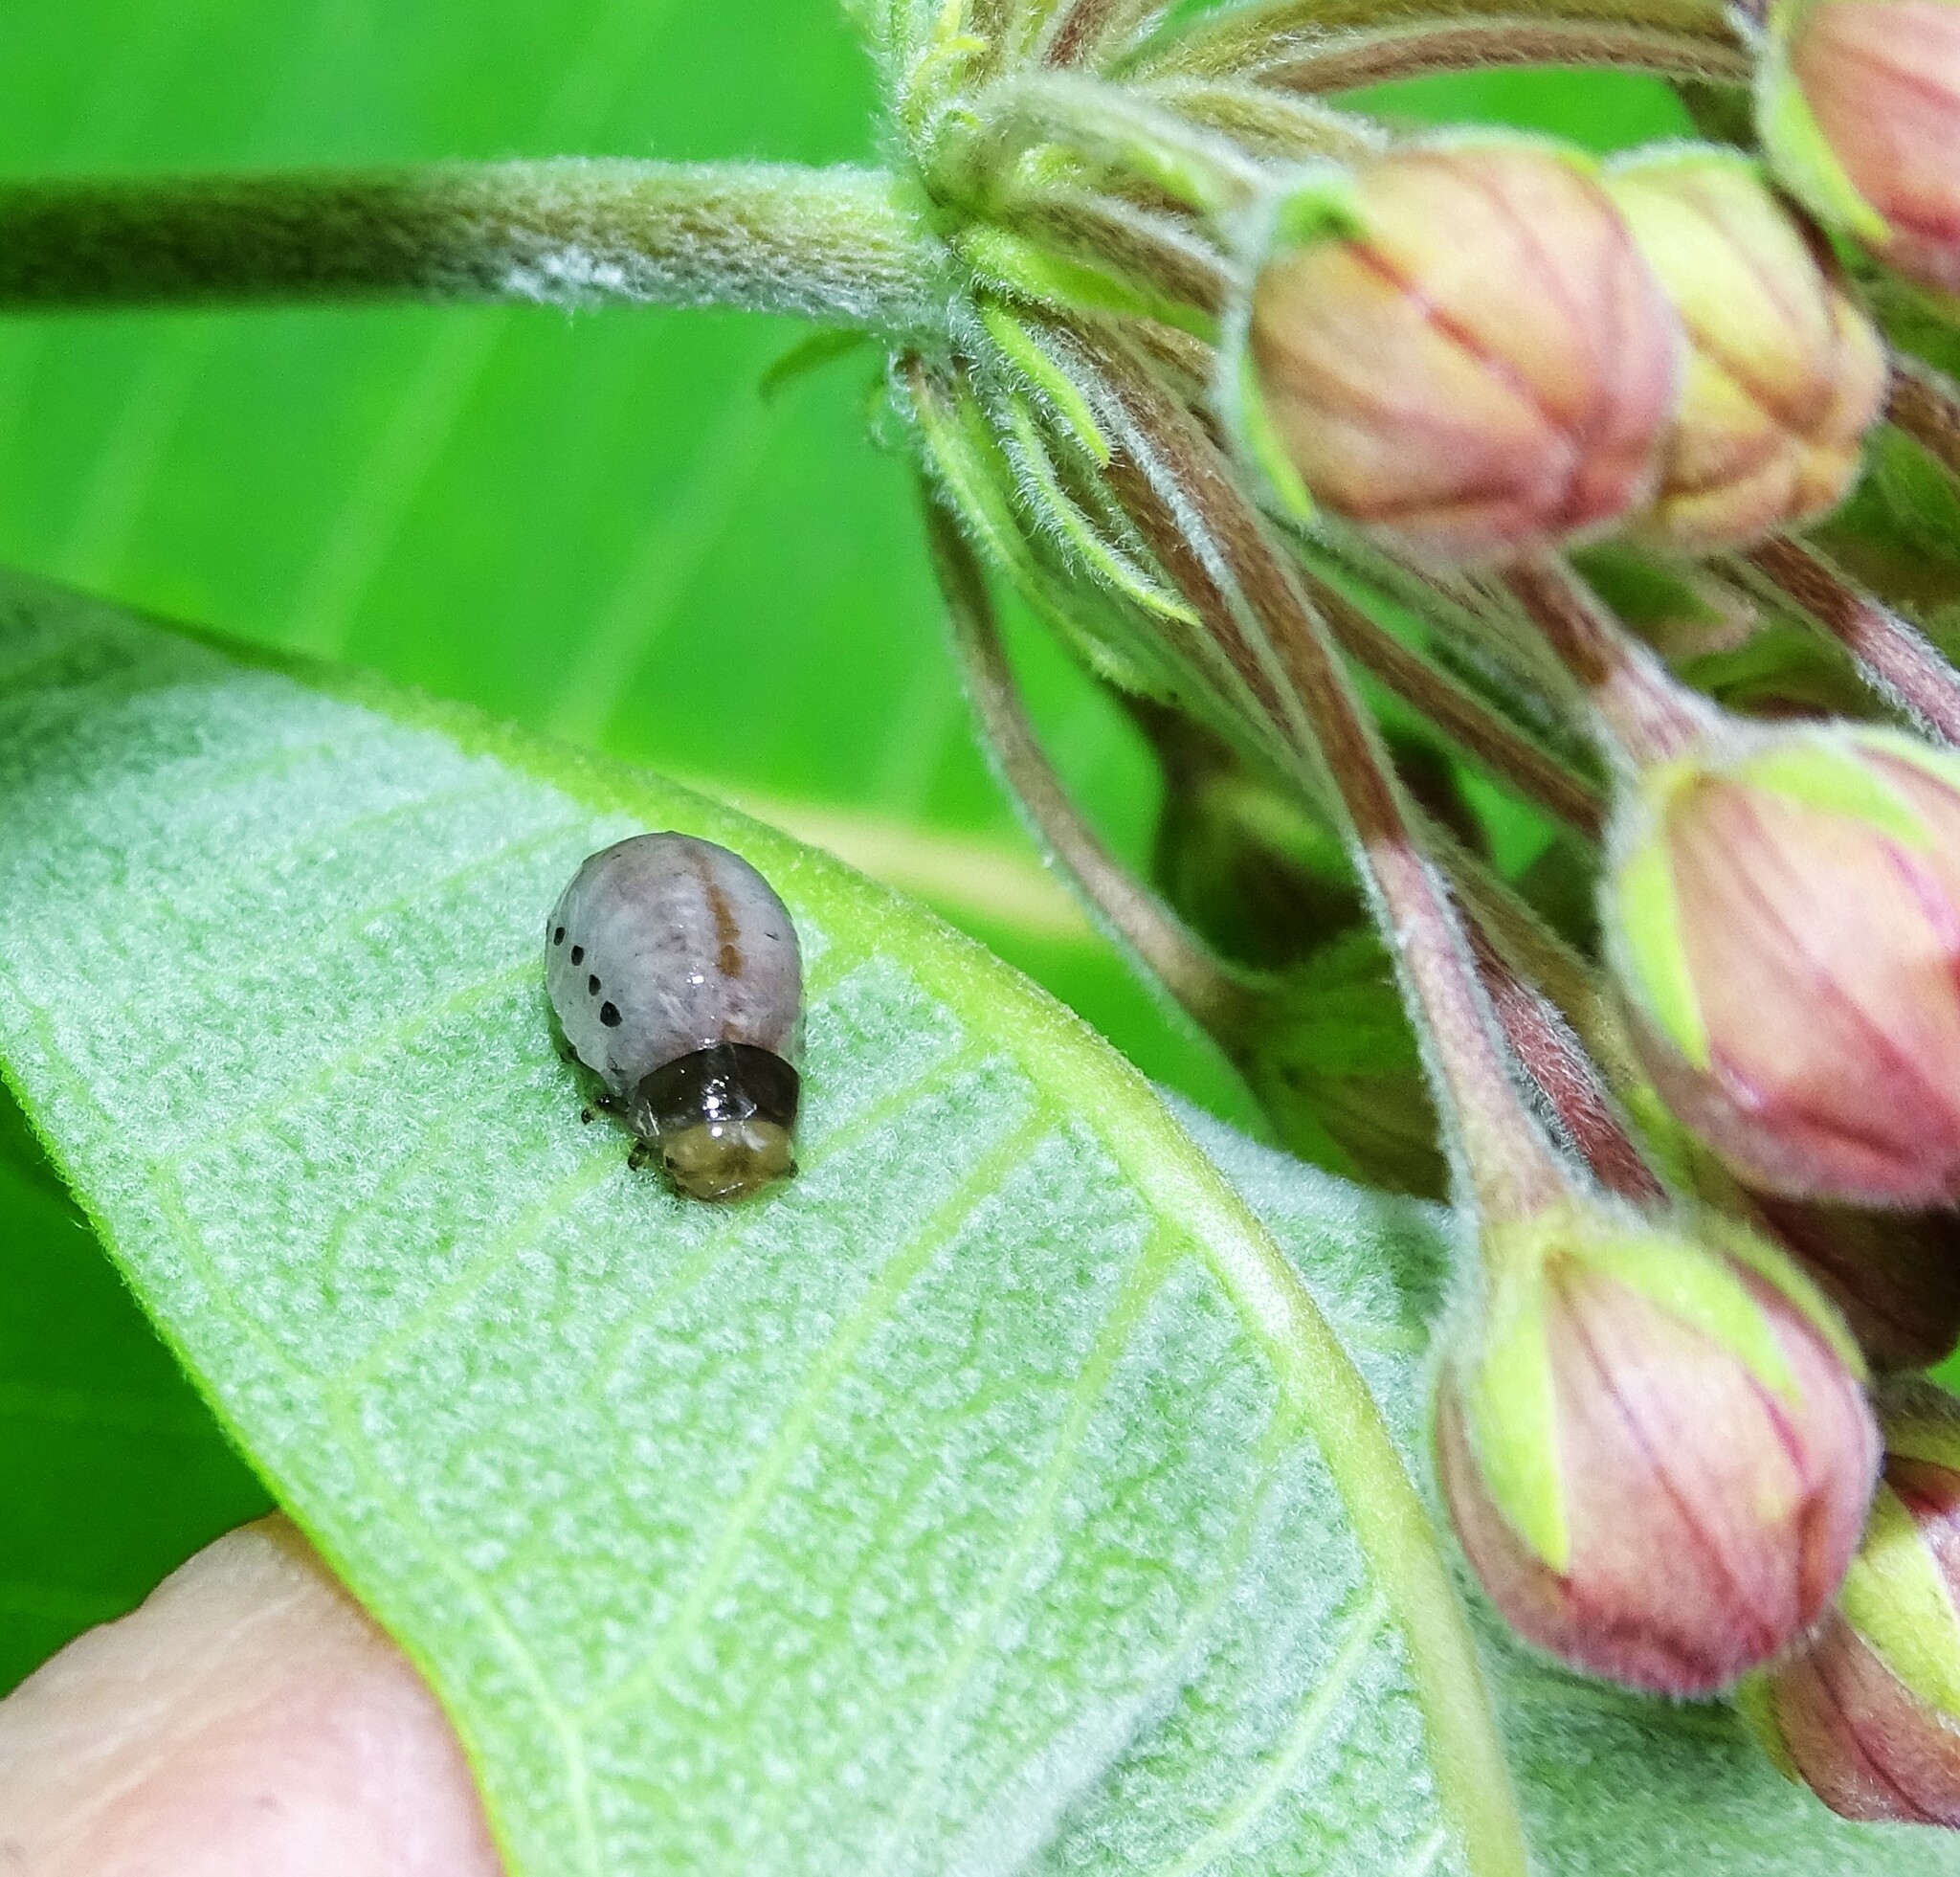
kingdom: Animalia
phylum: Arthropoda
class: Insecta
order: Coleoptera
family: Chrysomelidae
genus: Labidomera
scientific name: Labidomera clivicollis
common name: Swamp milkweed leaf beetle
